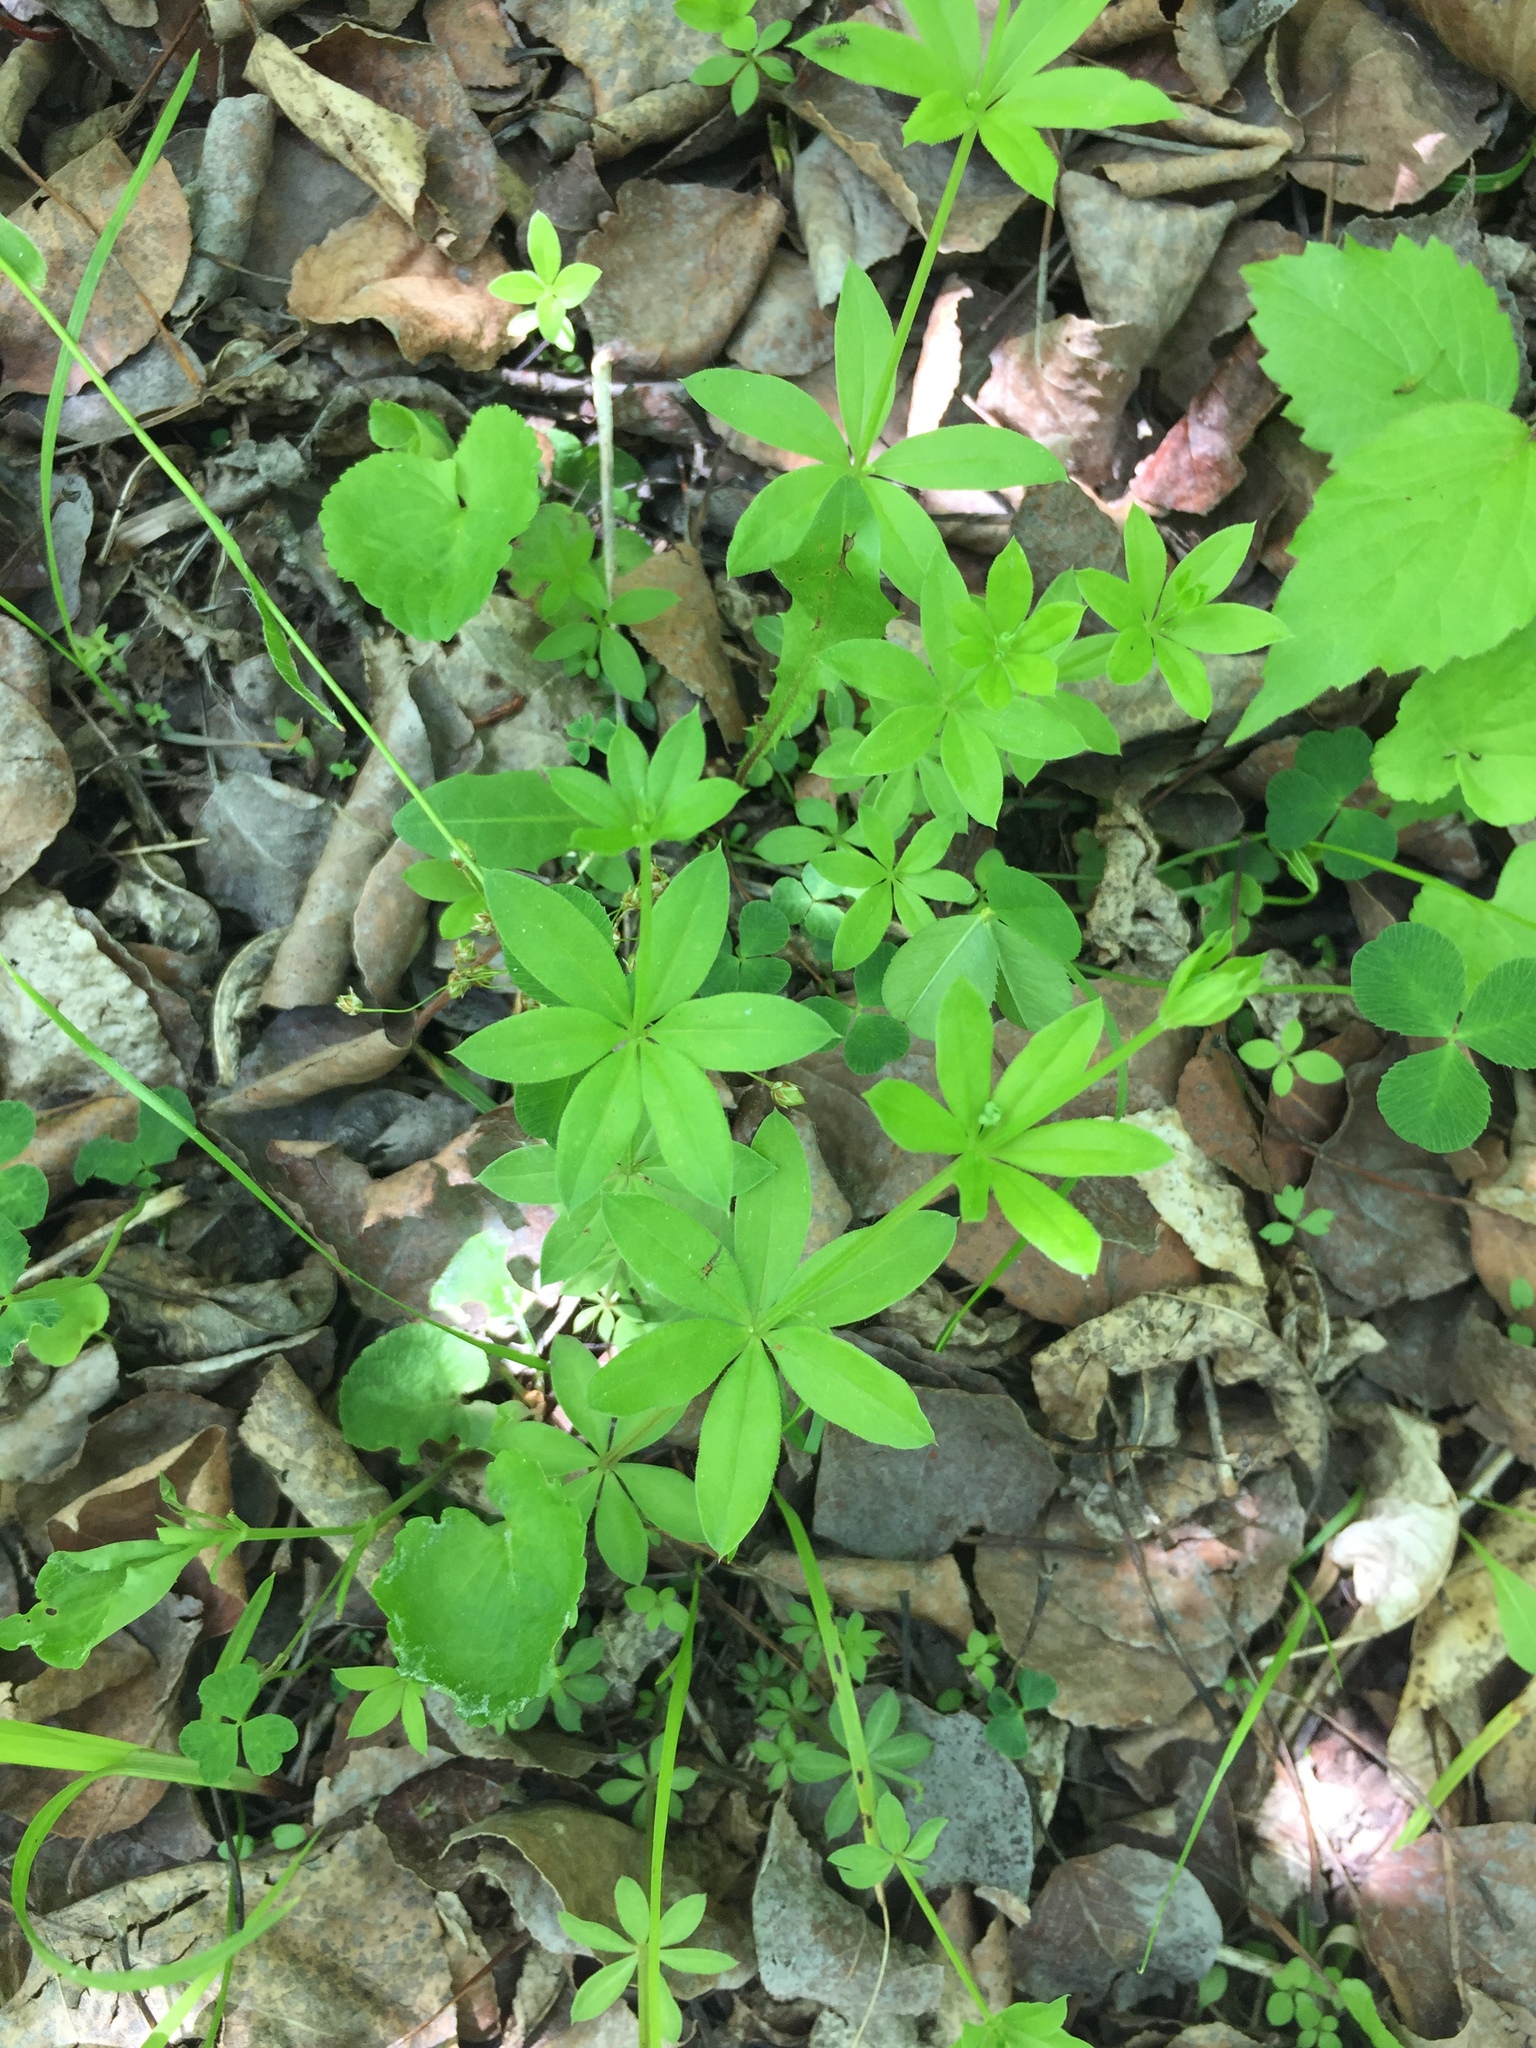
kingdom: Plantae
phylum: Tracheophyta
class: Magnoliopsida
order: Gentianales
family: Rubiaceae
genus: Galium
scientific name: Galium triflorum
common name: Fragrant bedstraw
